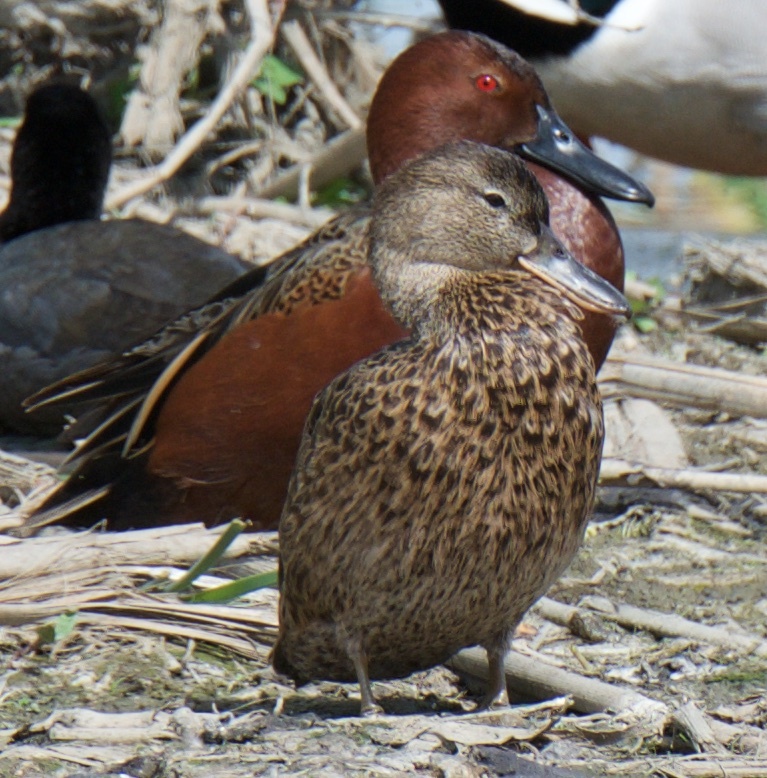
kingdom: Animalia
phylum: Chordata
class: Aves
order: Anseriformes
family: Anatidae
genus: Spatula
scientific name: Spatula cyanoptera
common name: Cinnamon teal
